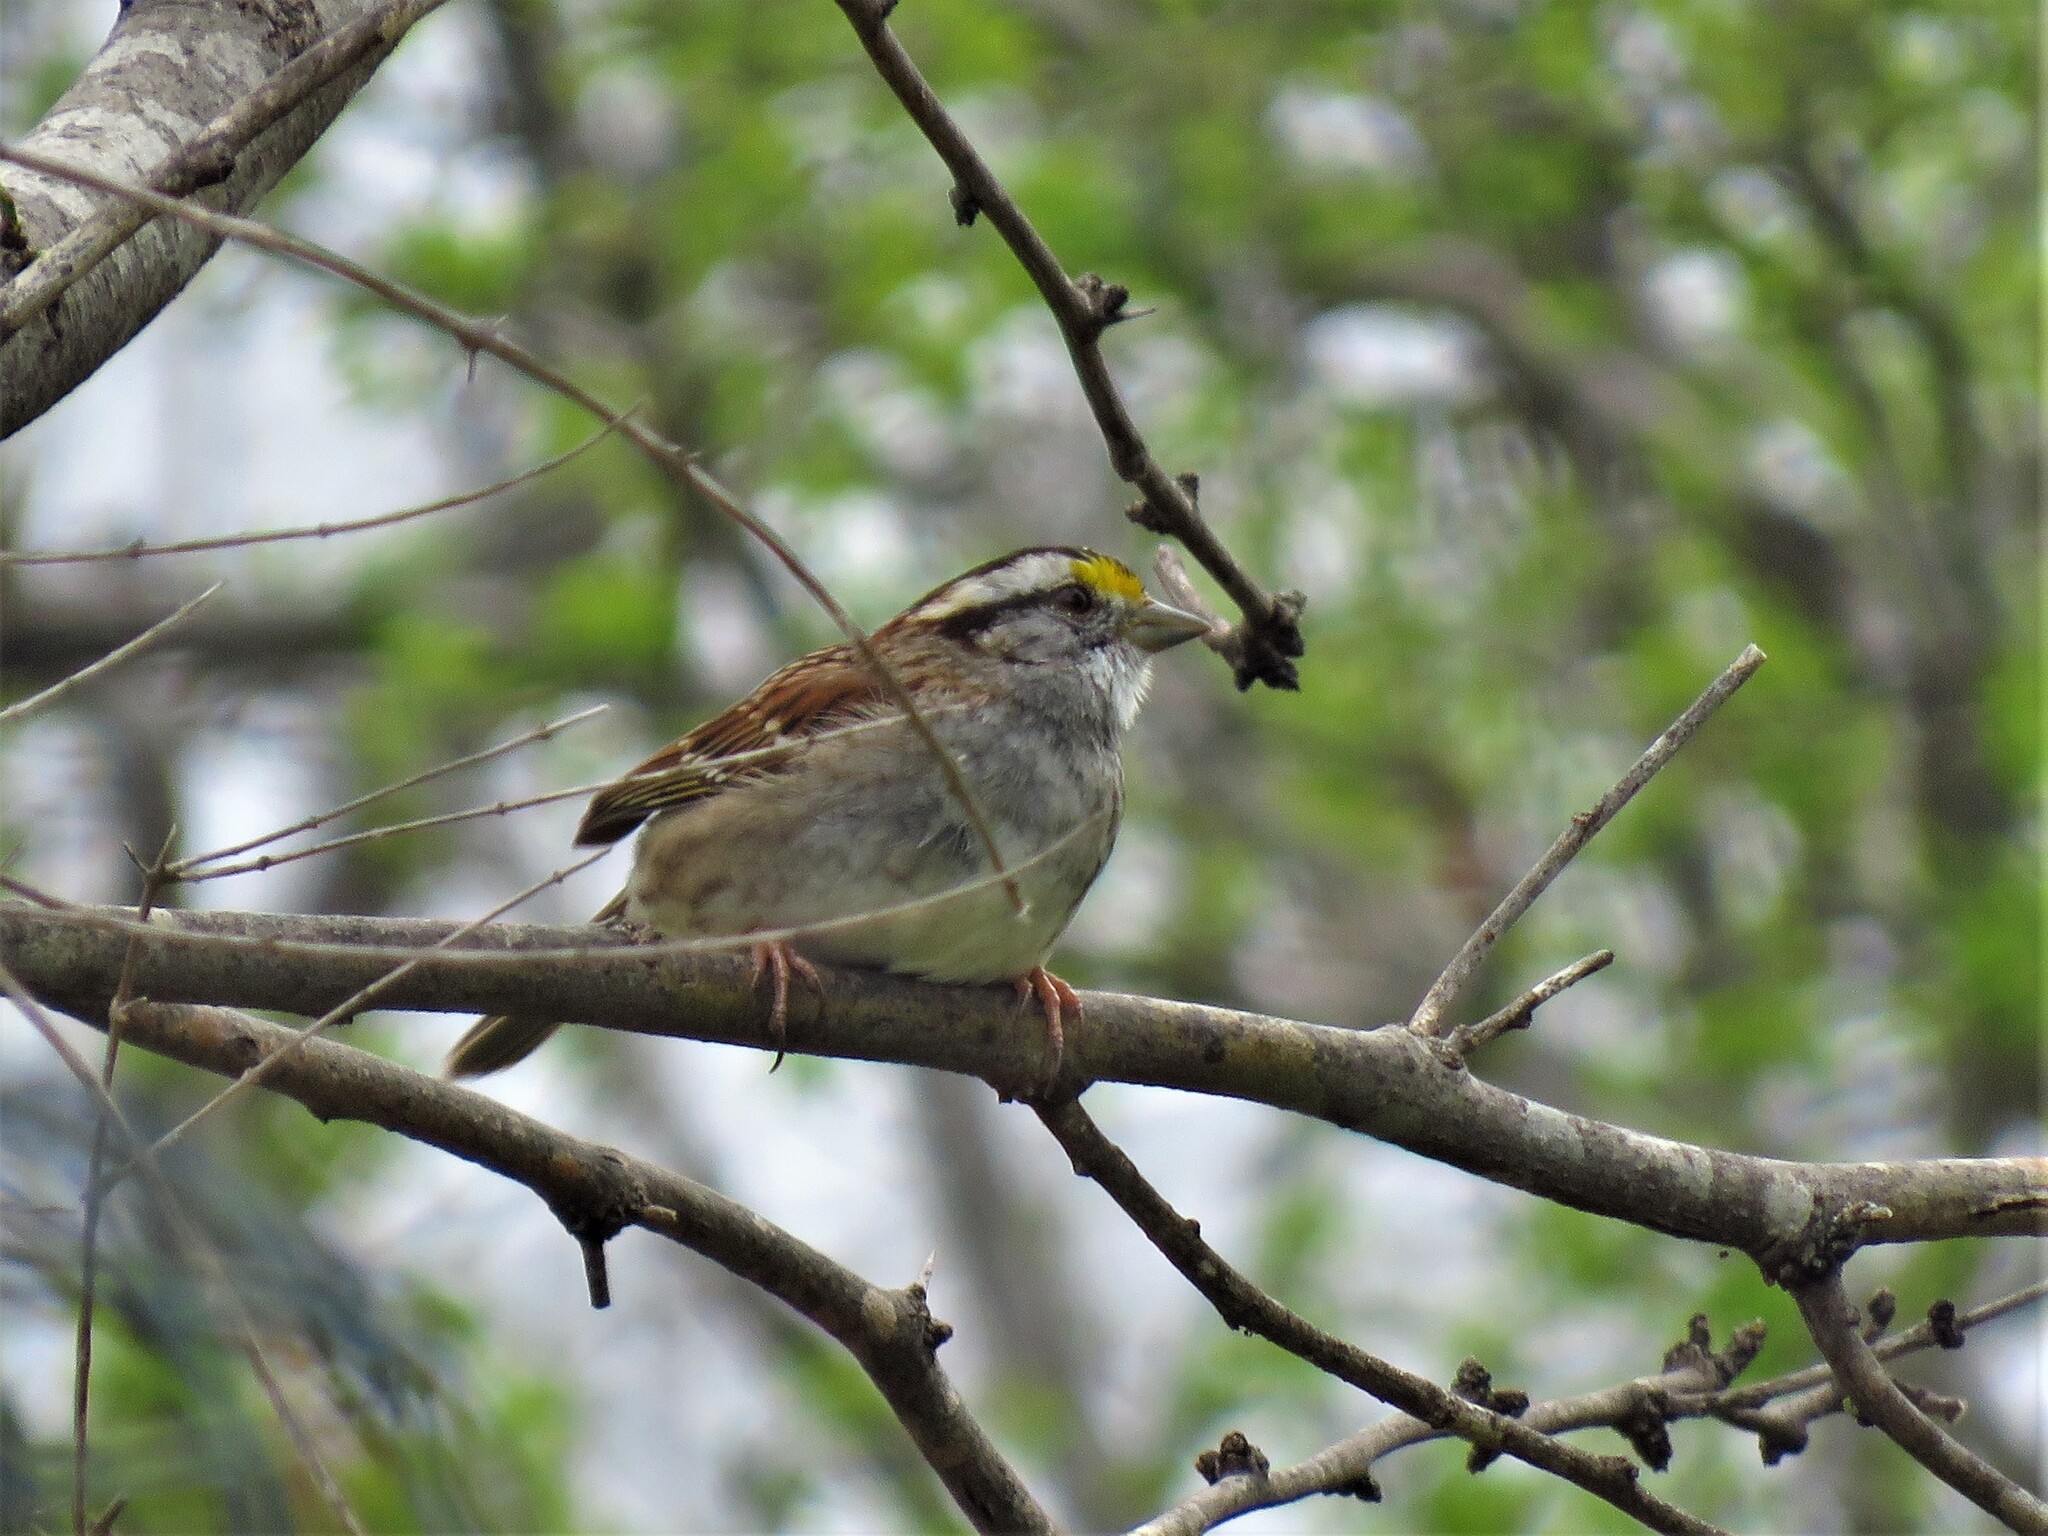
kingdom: Animalia
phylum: Chordata
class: Aves
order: Passeriformes
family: Passerellidae
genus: Zonotrichia
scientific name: Zonotrichia albicollis
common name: White-throated sparrow
